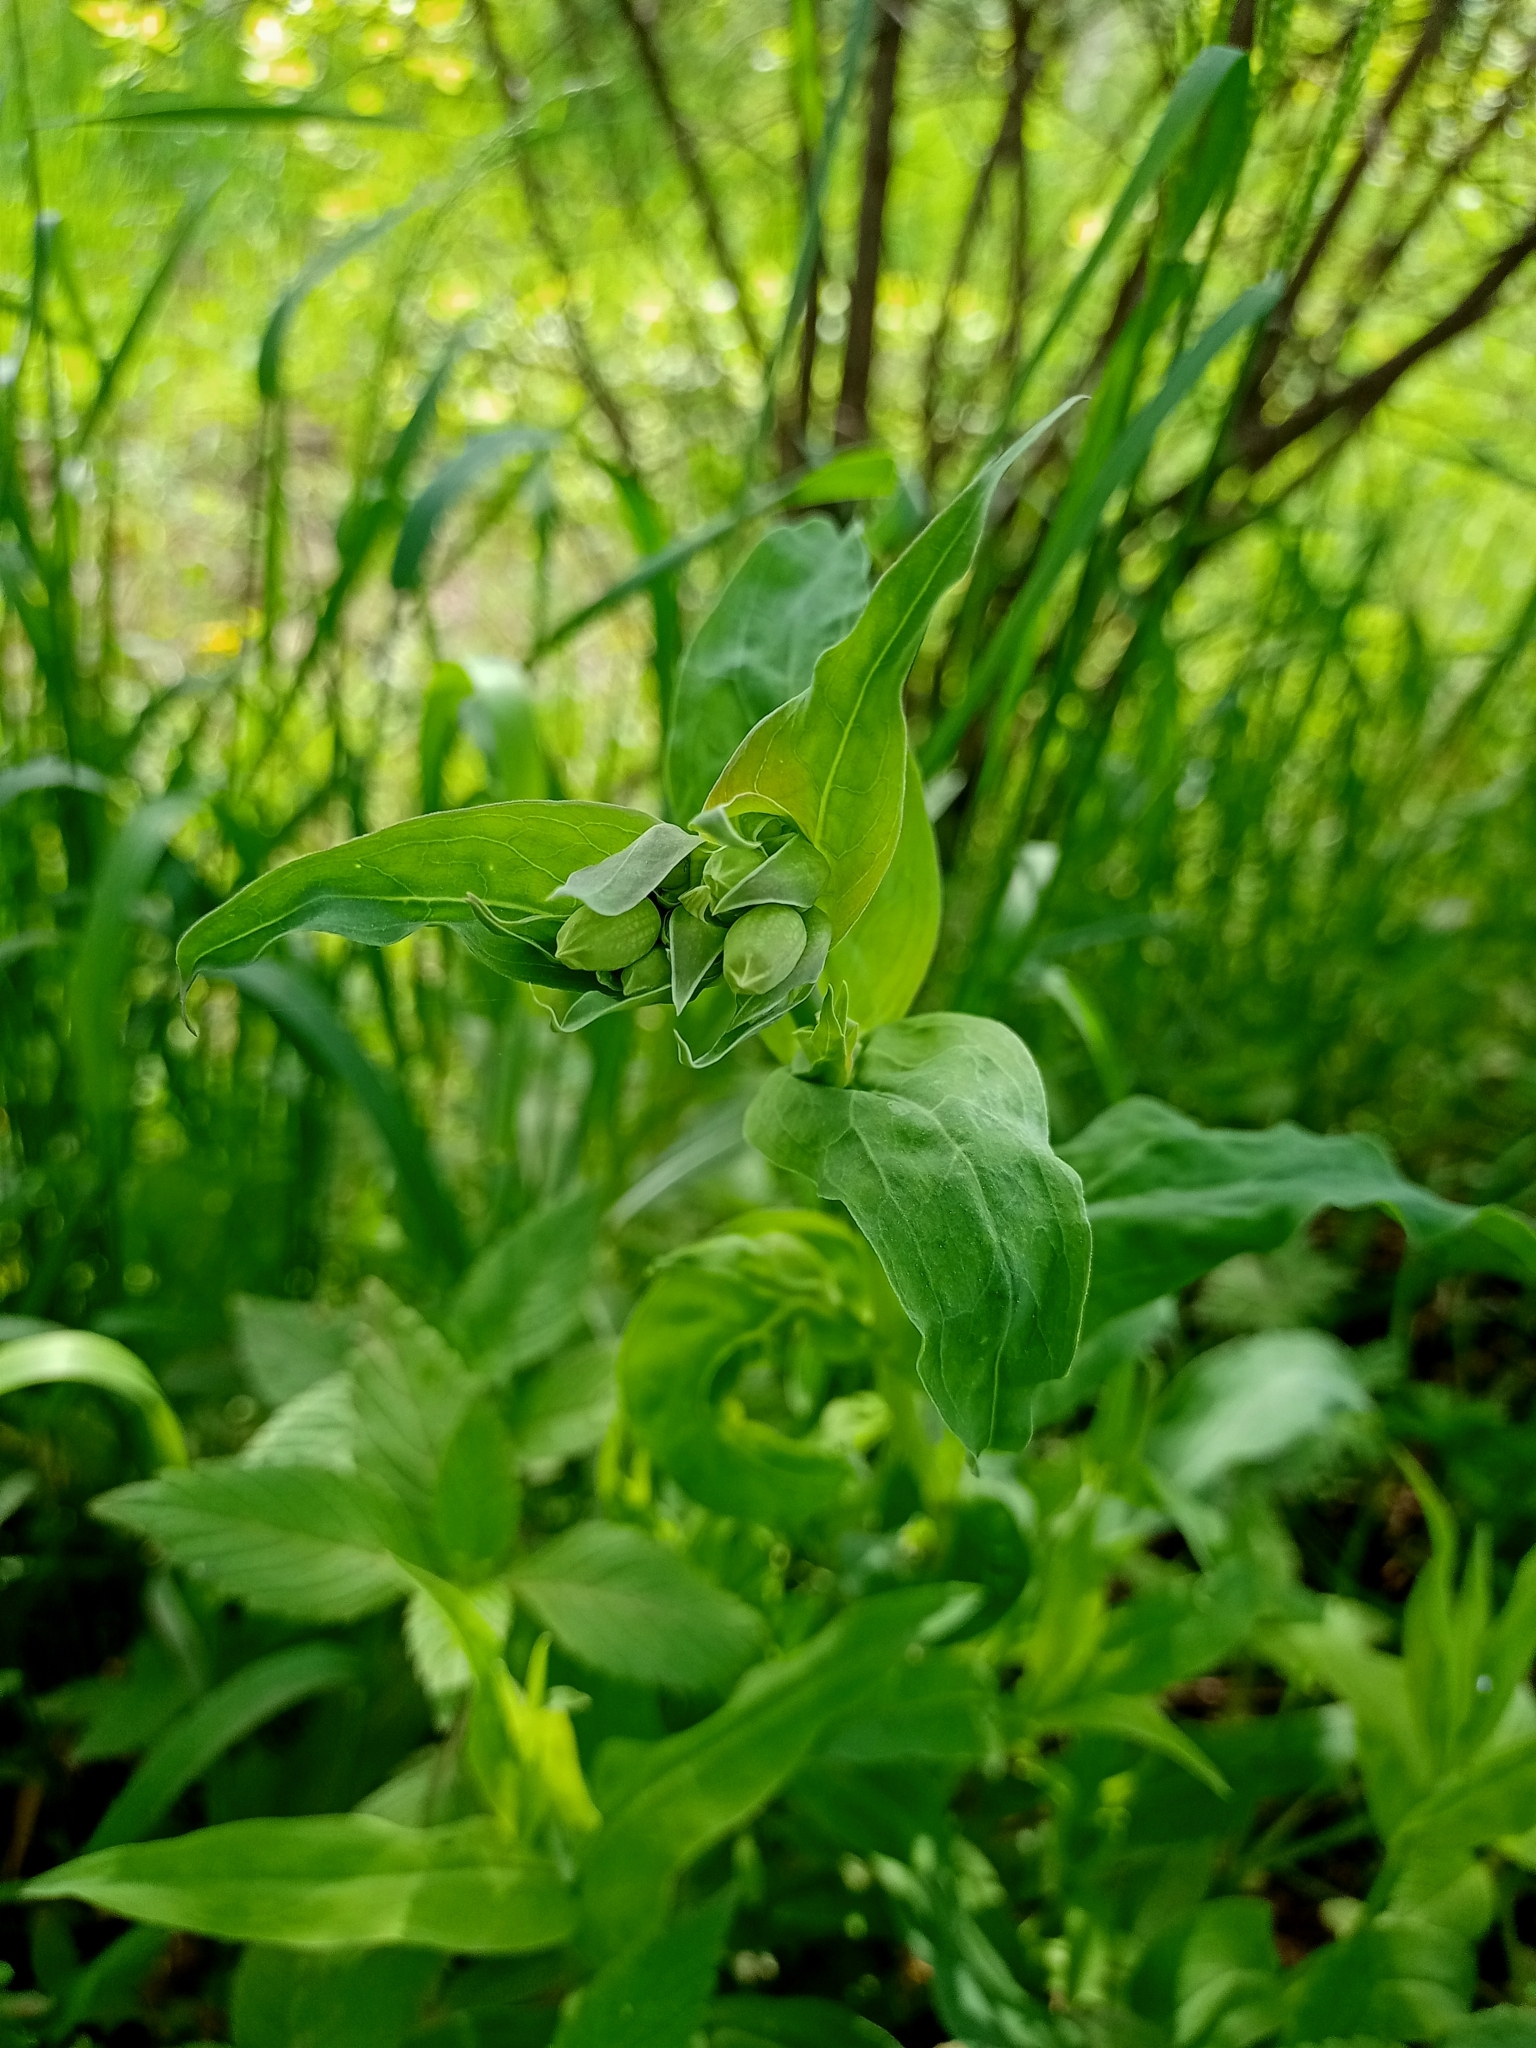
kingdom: Plantae
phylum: Tracheophyta
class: Magnoliopsida
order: Caryophyllales
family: Caryophyllaceae
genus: Silene
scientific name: Silene vulgaris
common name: Bladder campion
